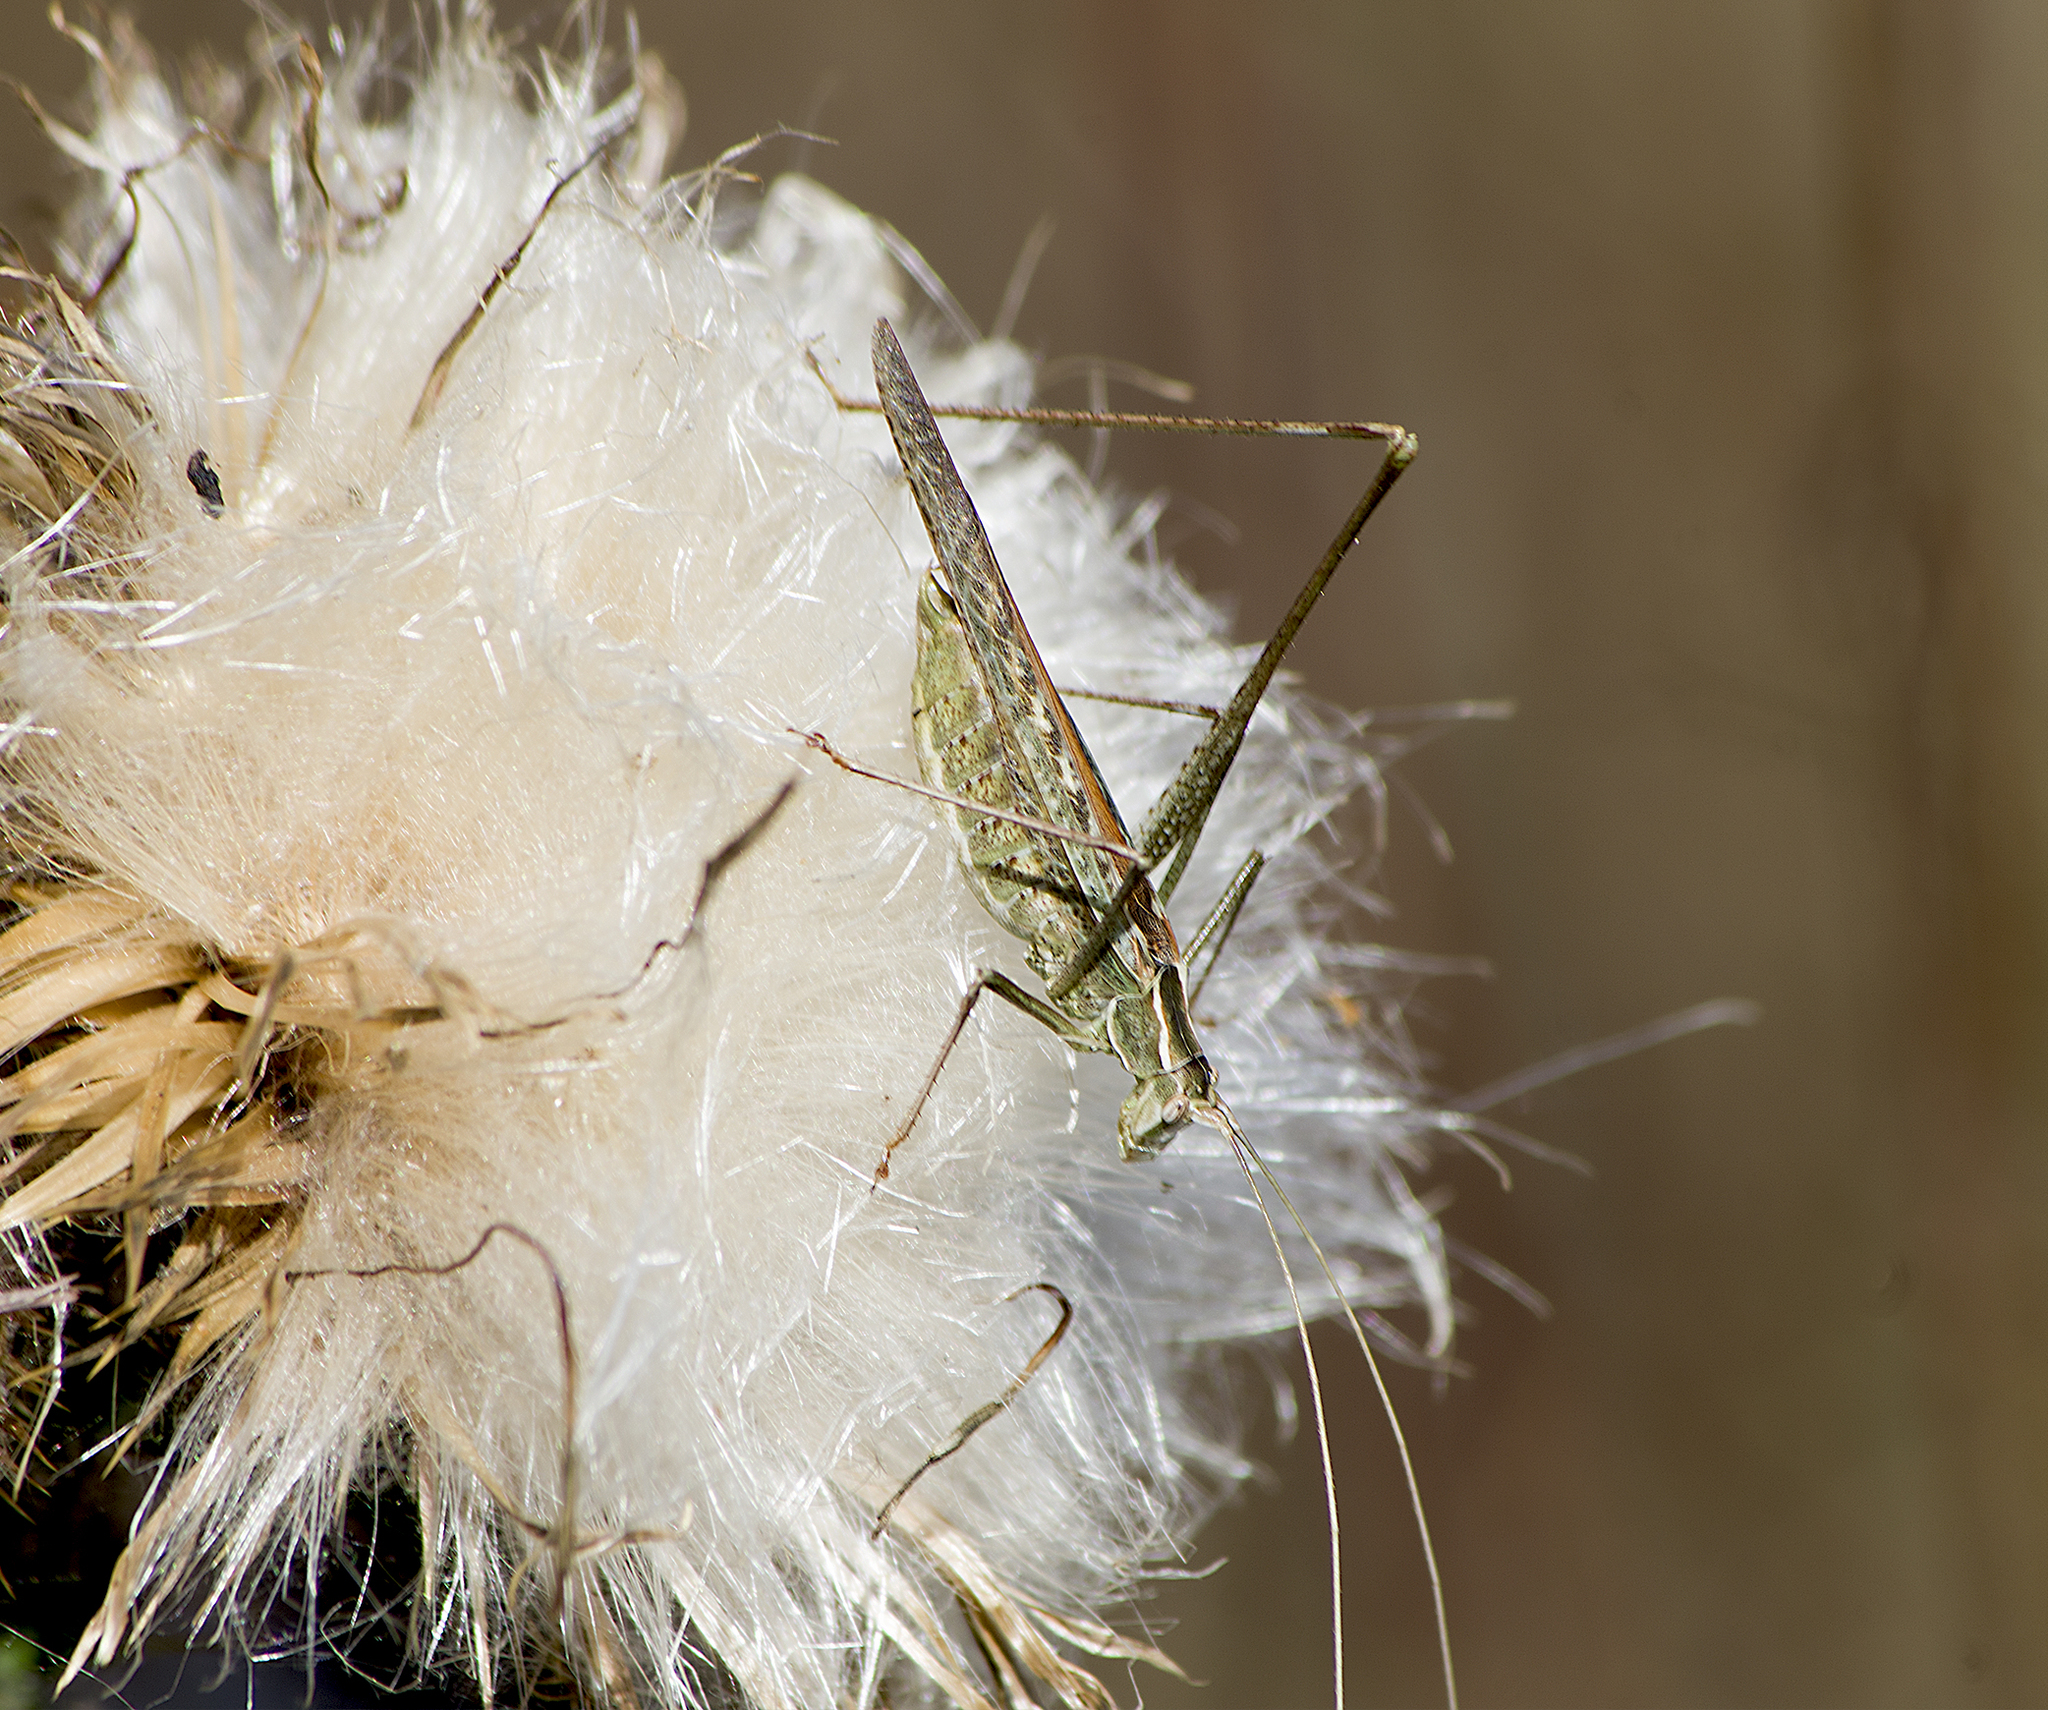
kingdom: Animalia
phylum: Arthropoda
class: Insecta
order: Orthoptera
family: Tettigoniidae
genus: Tylopsis
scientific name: Tylopsis lilifolia
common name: Lily bush-cricket
